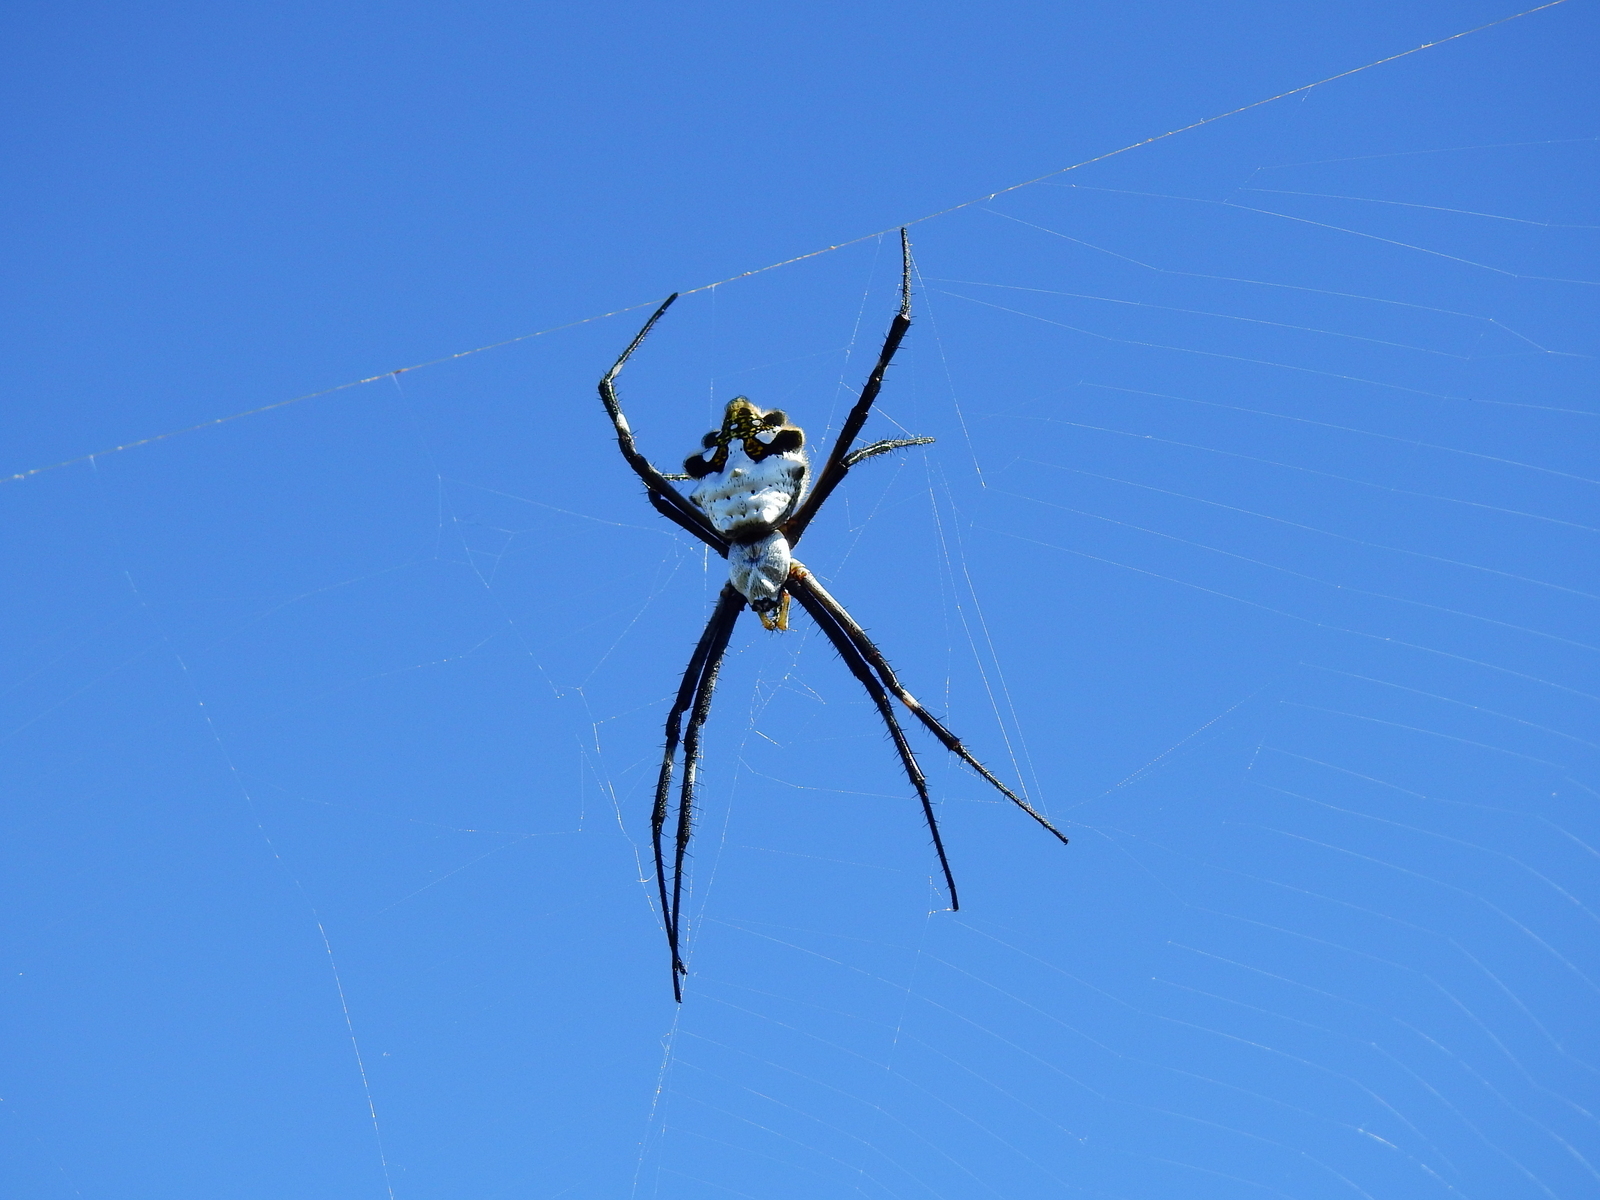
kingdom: Animalia
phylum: Arthropoda
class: Arachnida
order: Araneae
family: Araneidae
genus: Argiope
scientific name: Argiope argentata
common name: Orb weavers
